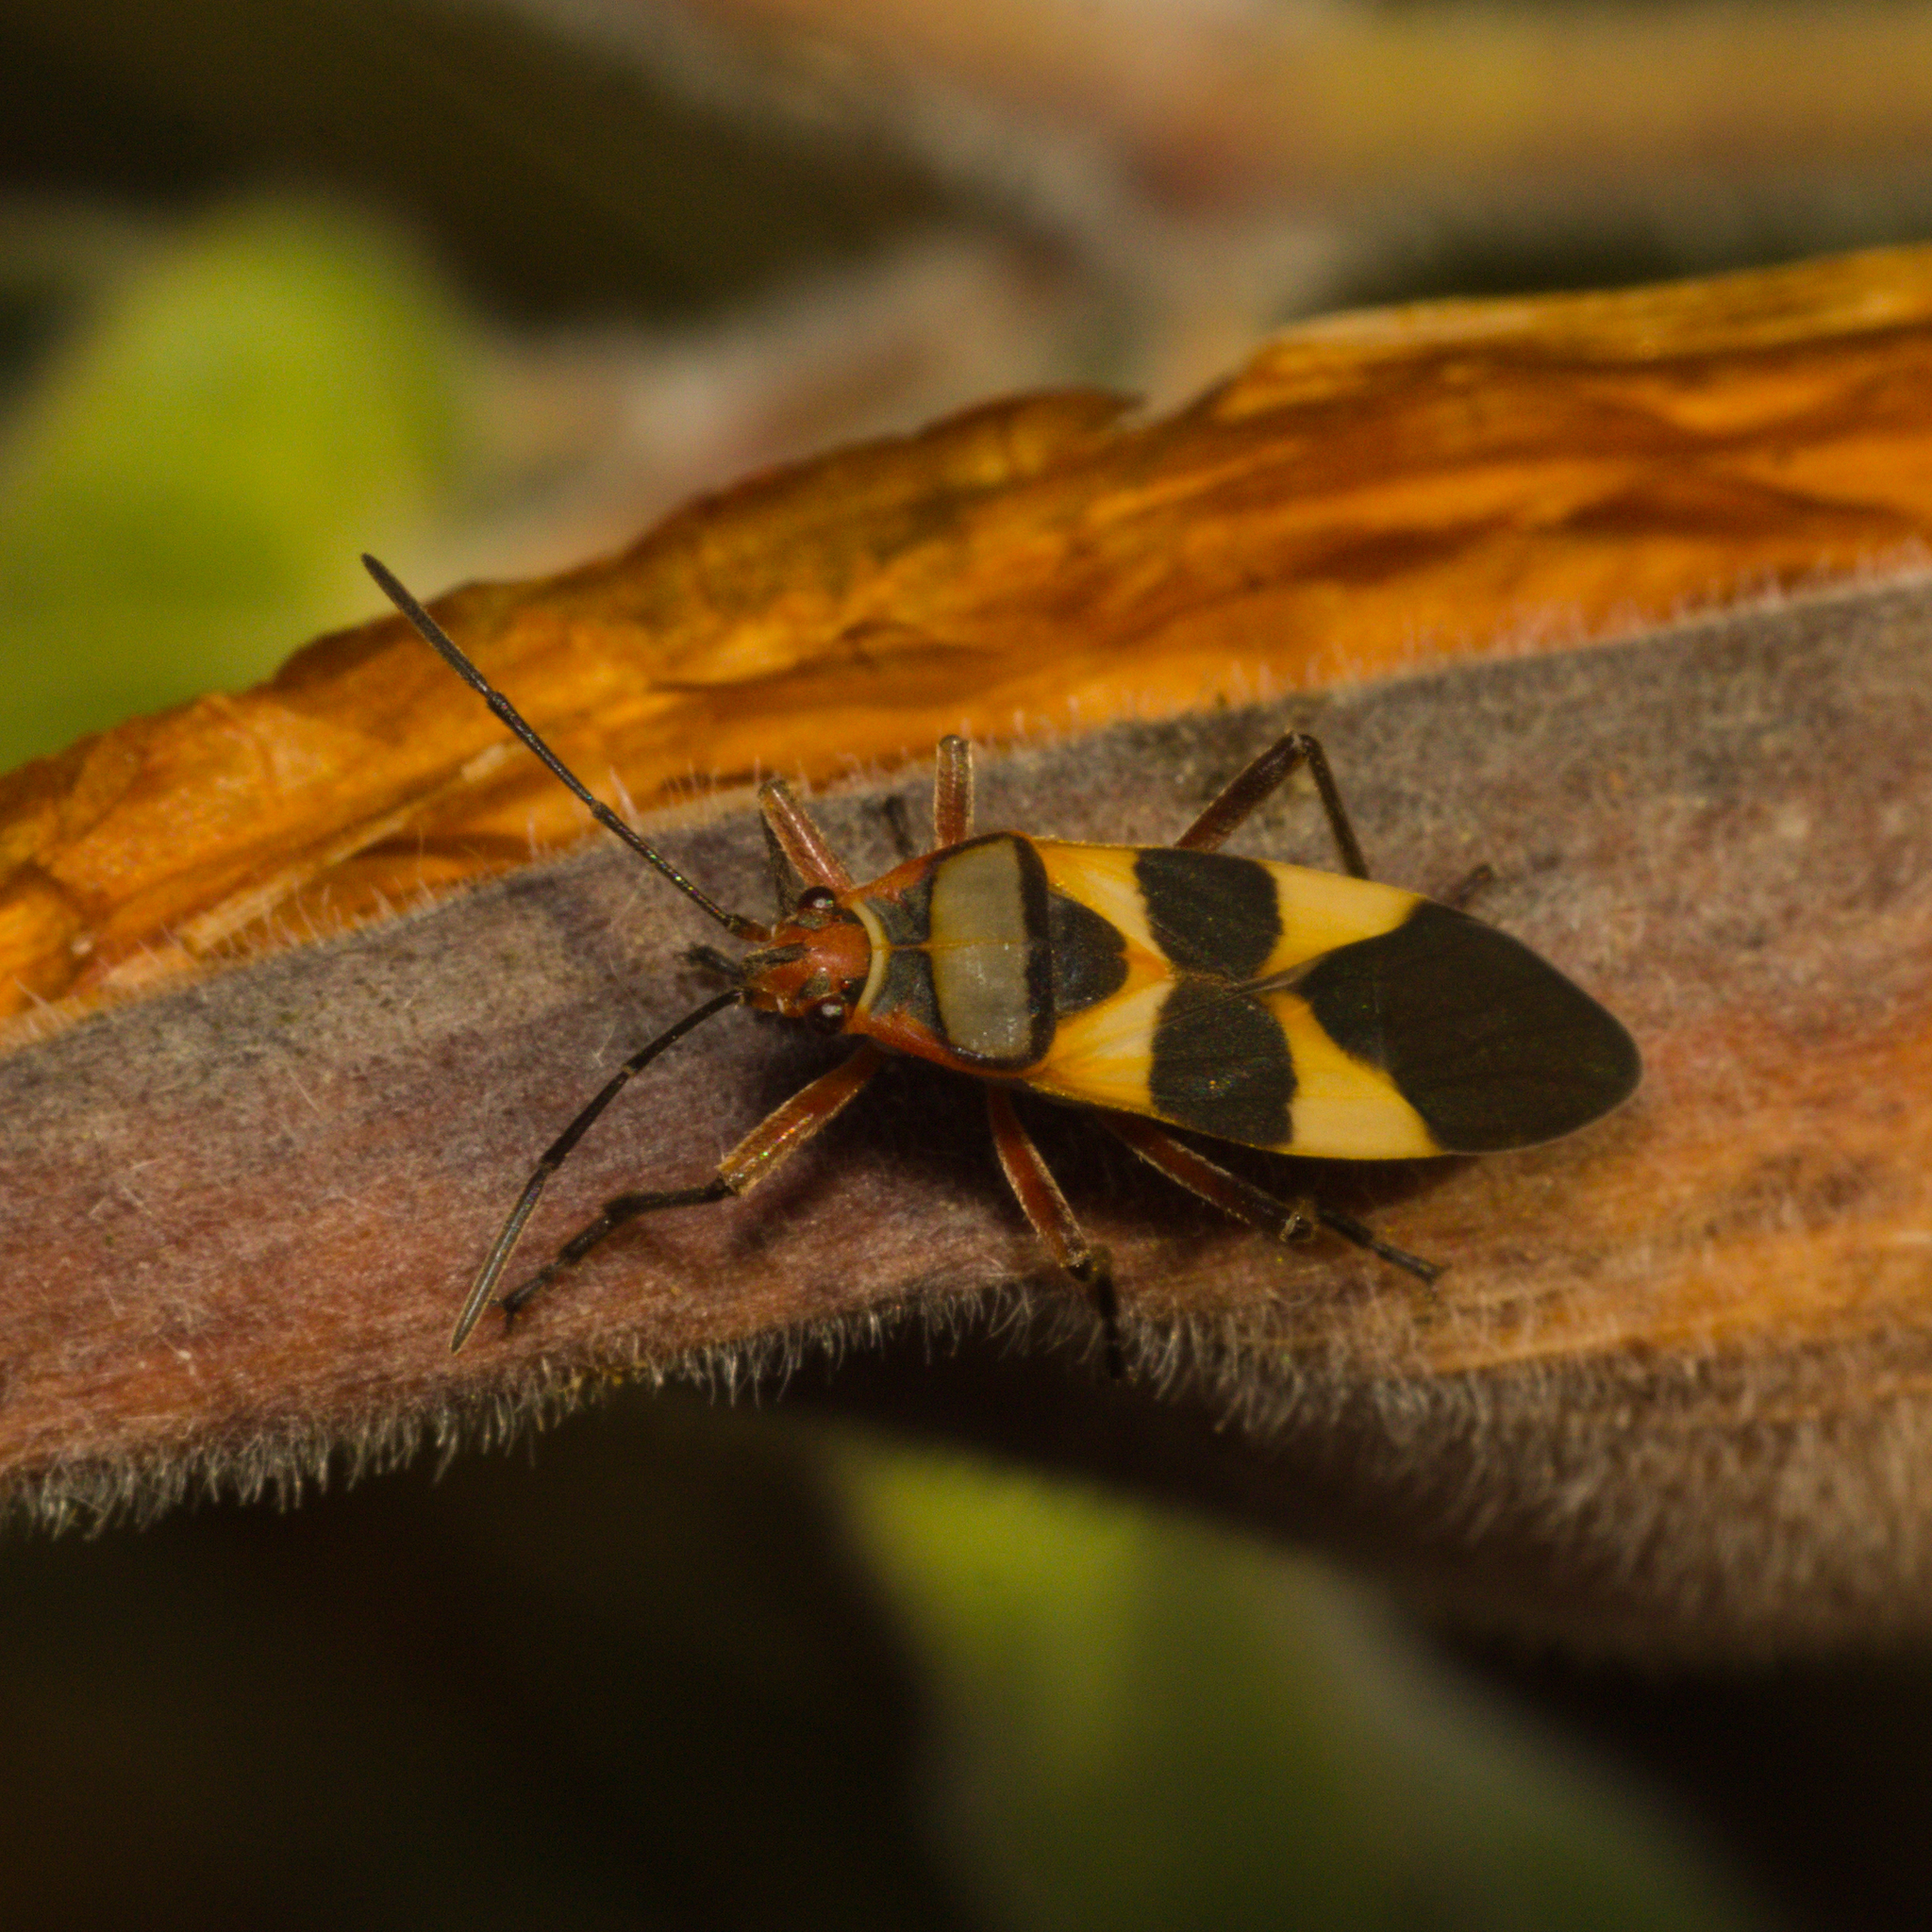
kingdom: Animalia
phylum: Arthropoda
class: Insecta
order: Hemiptera
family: Lygaeidae
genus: Oncopeltus
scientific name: Oncopeltus unifasciatellus
